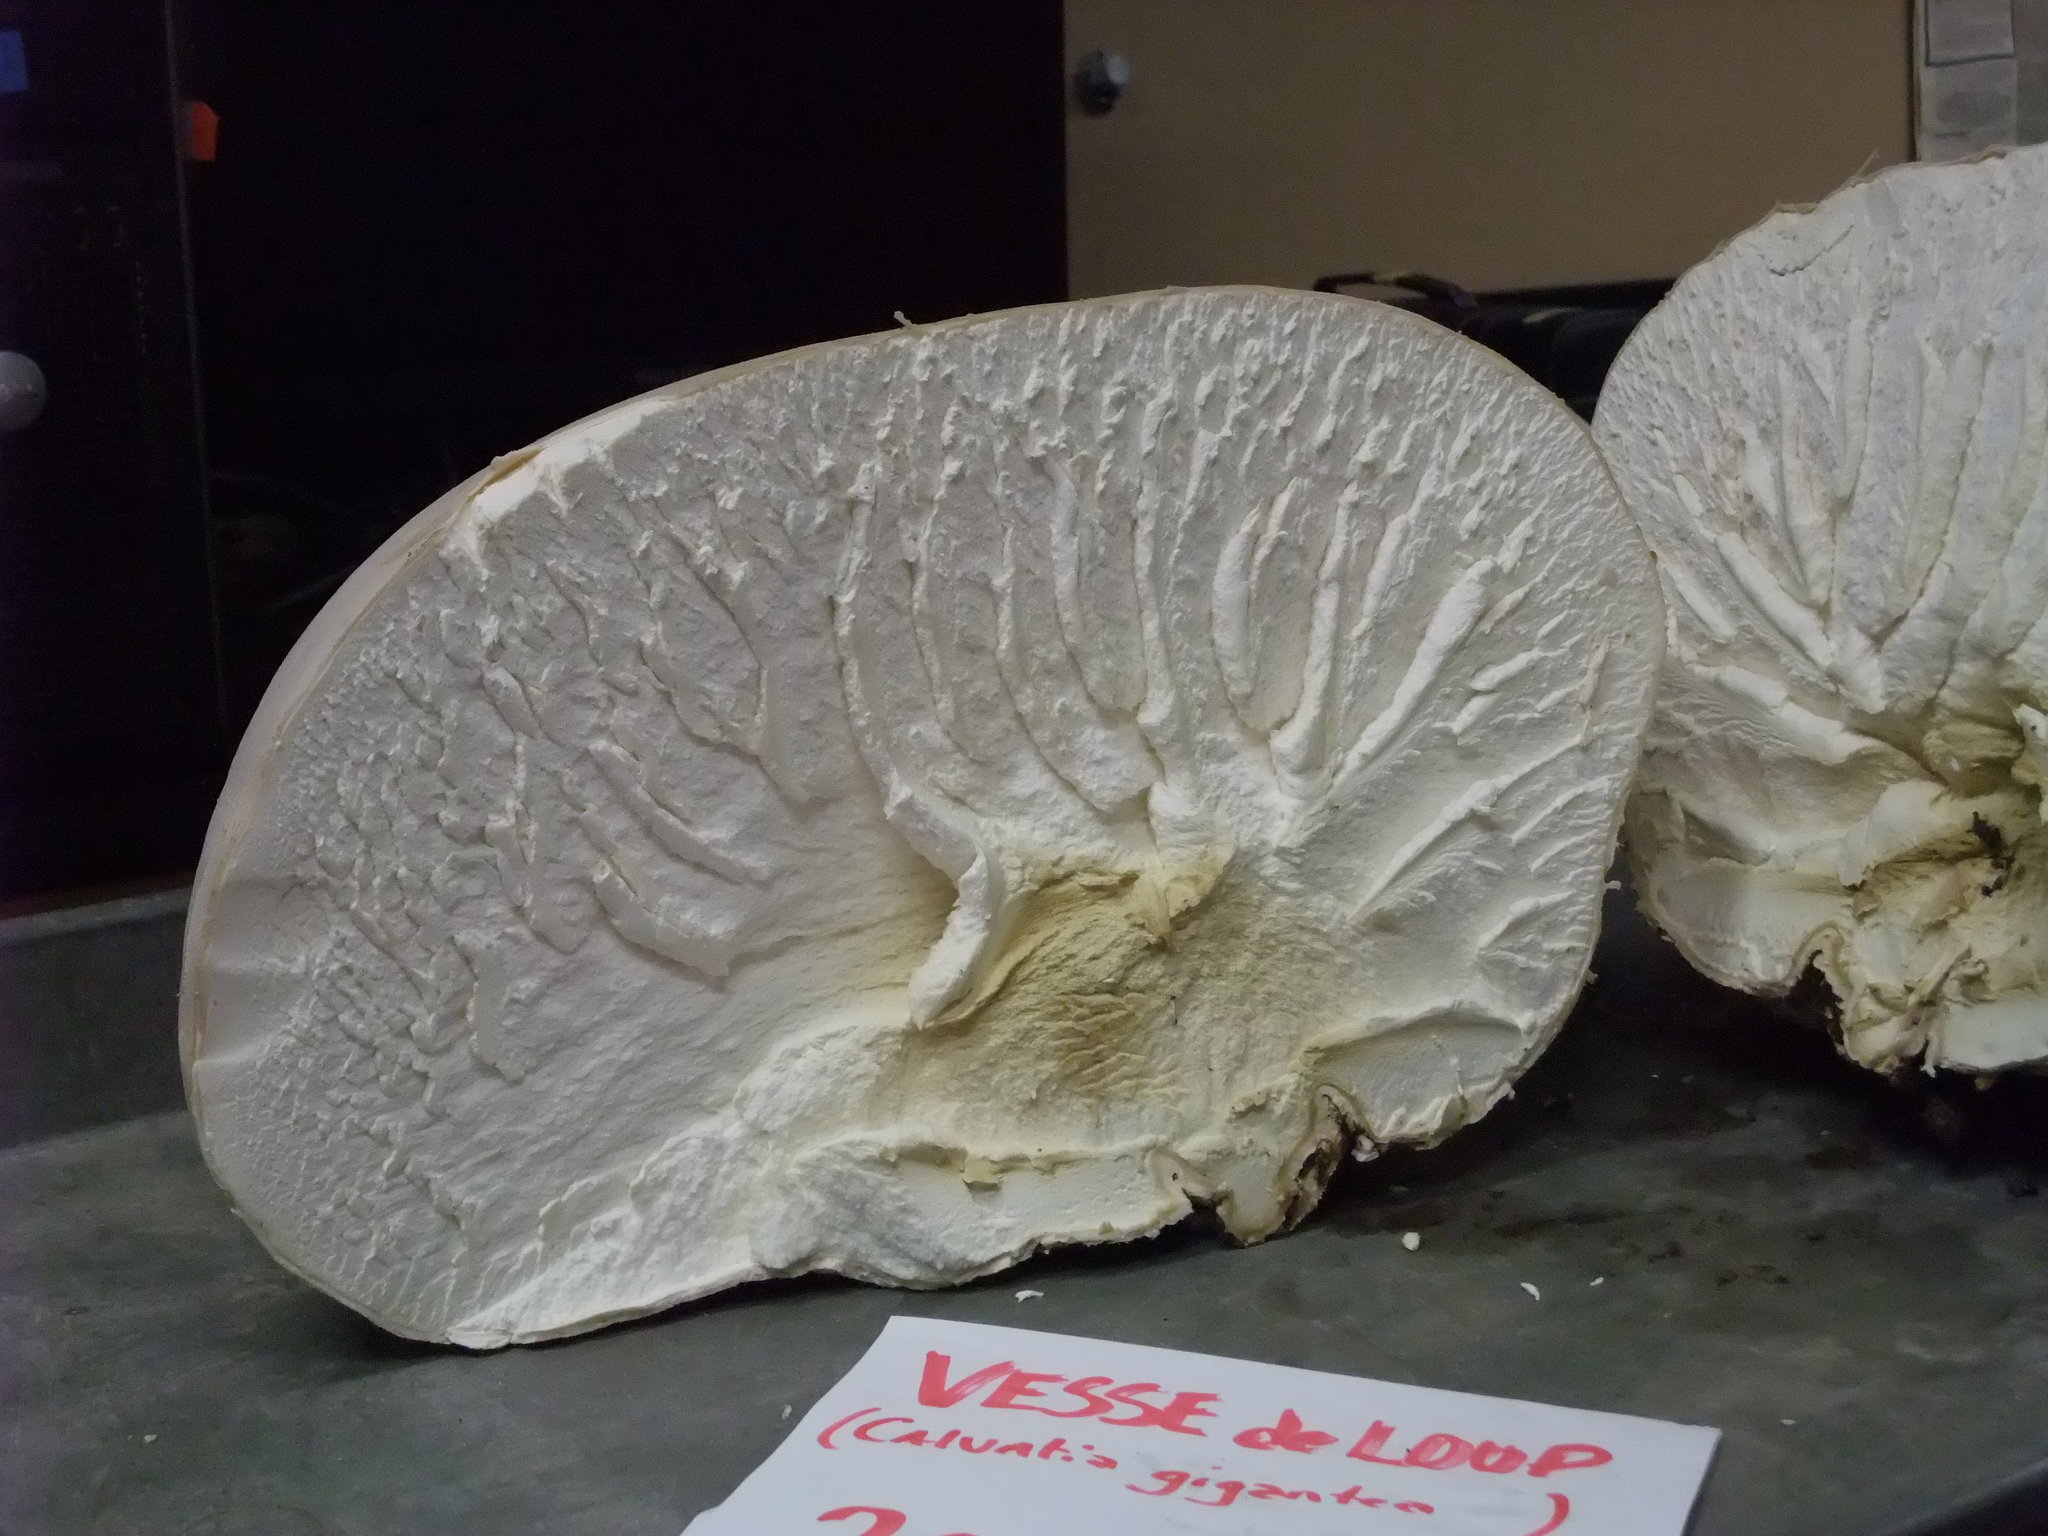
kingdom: Fungi
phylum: Basidiomycota
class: Agaricomycetes
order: Agaricales
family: Lycoperdaceae
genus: Calvatia
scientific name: Calvatia gigantea
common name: Giant puffball
